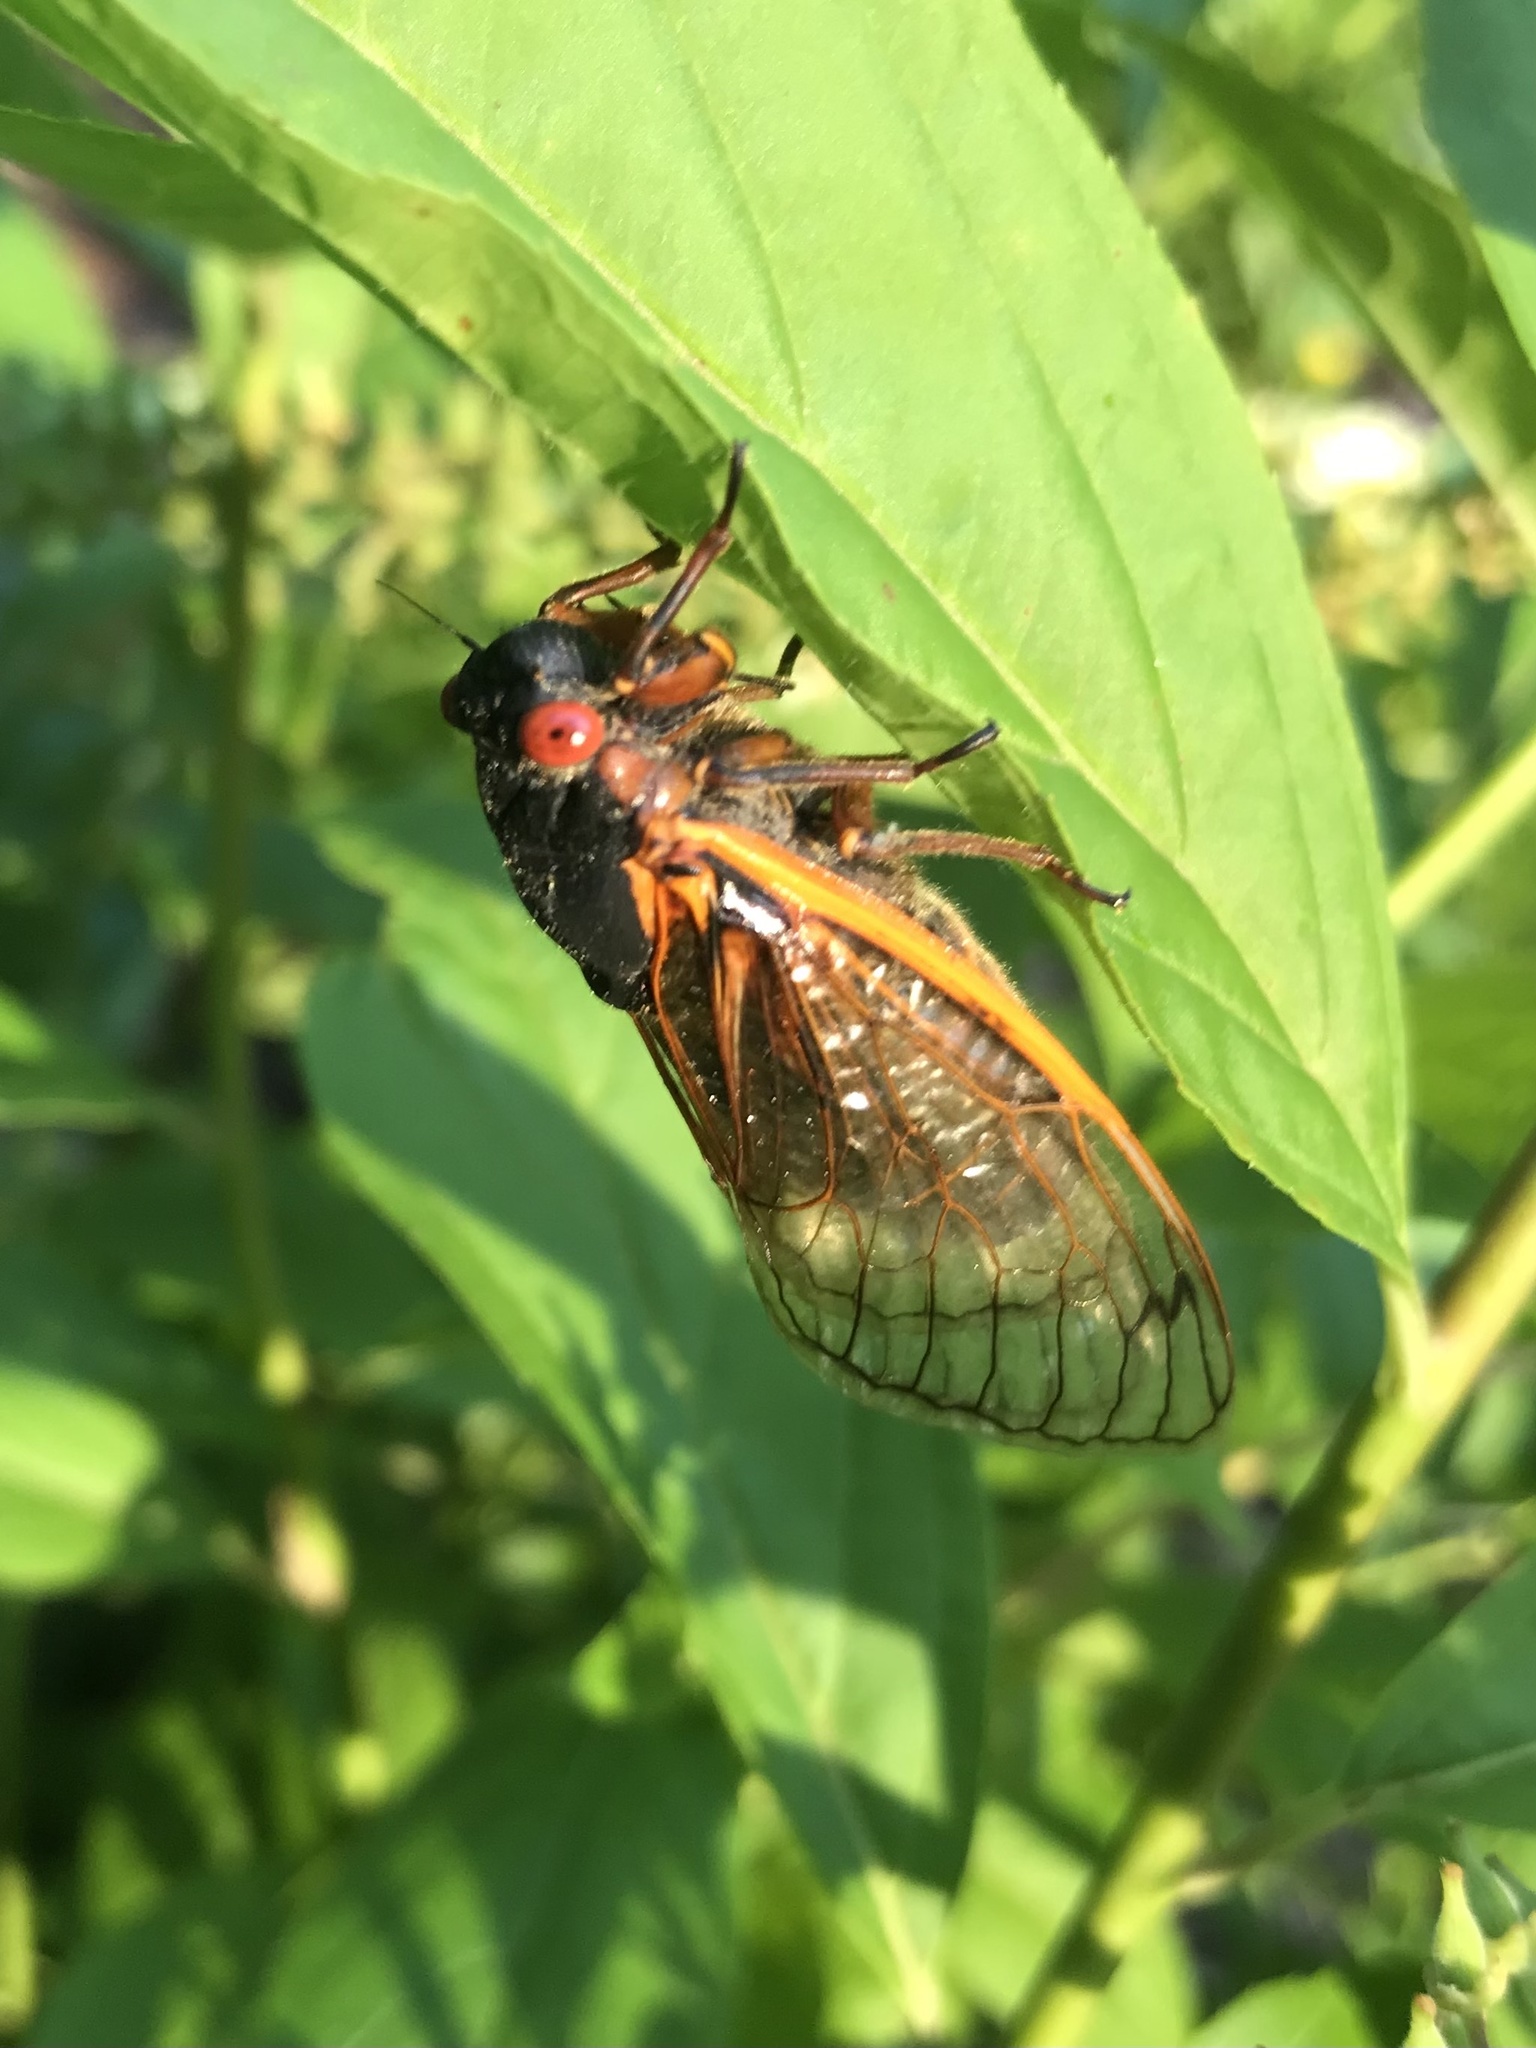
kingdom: Animalia
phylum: Arthropoda
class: Insecta
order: Hemiptera
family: Cicadidae
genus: Magicicada
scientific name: Magicicada septendecim
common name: Periodical cicada
